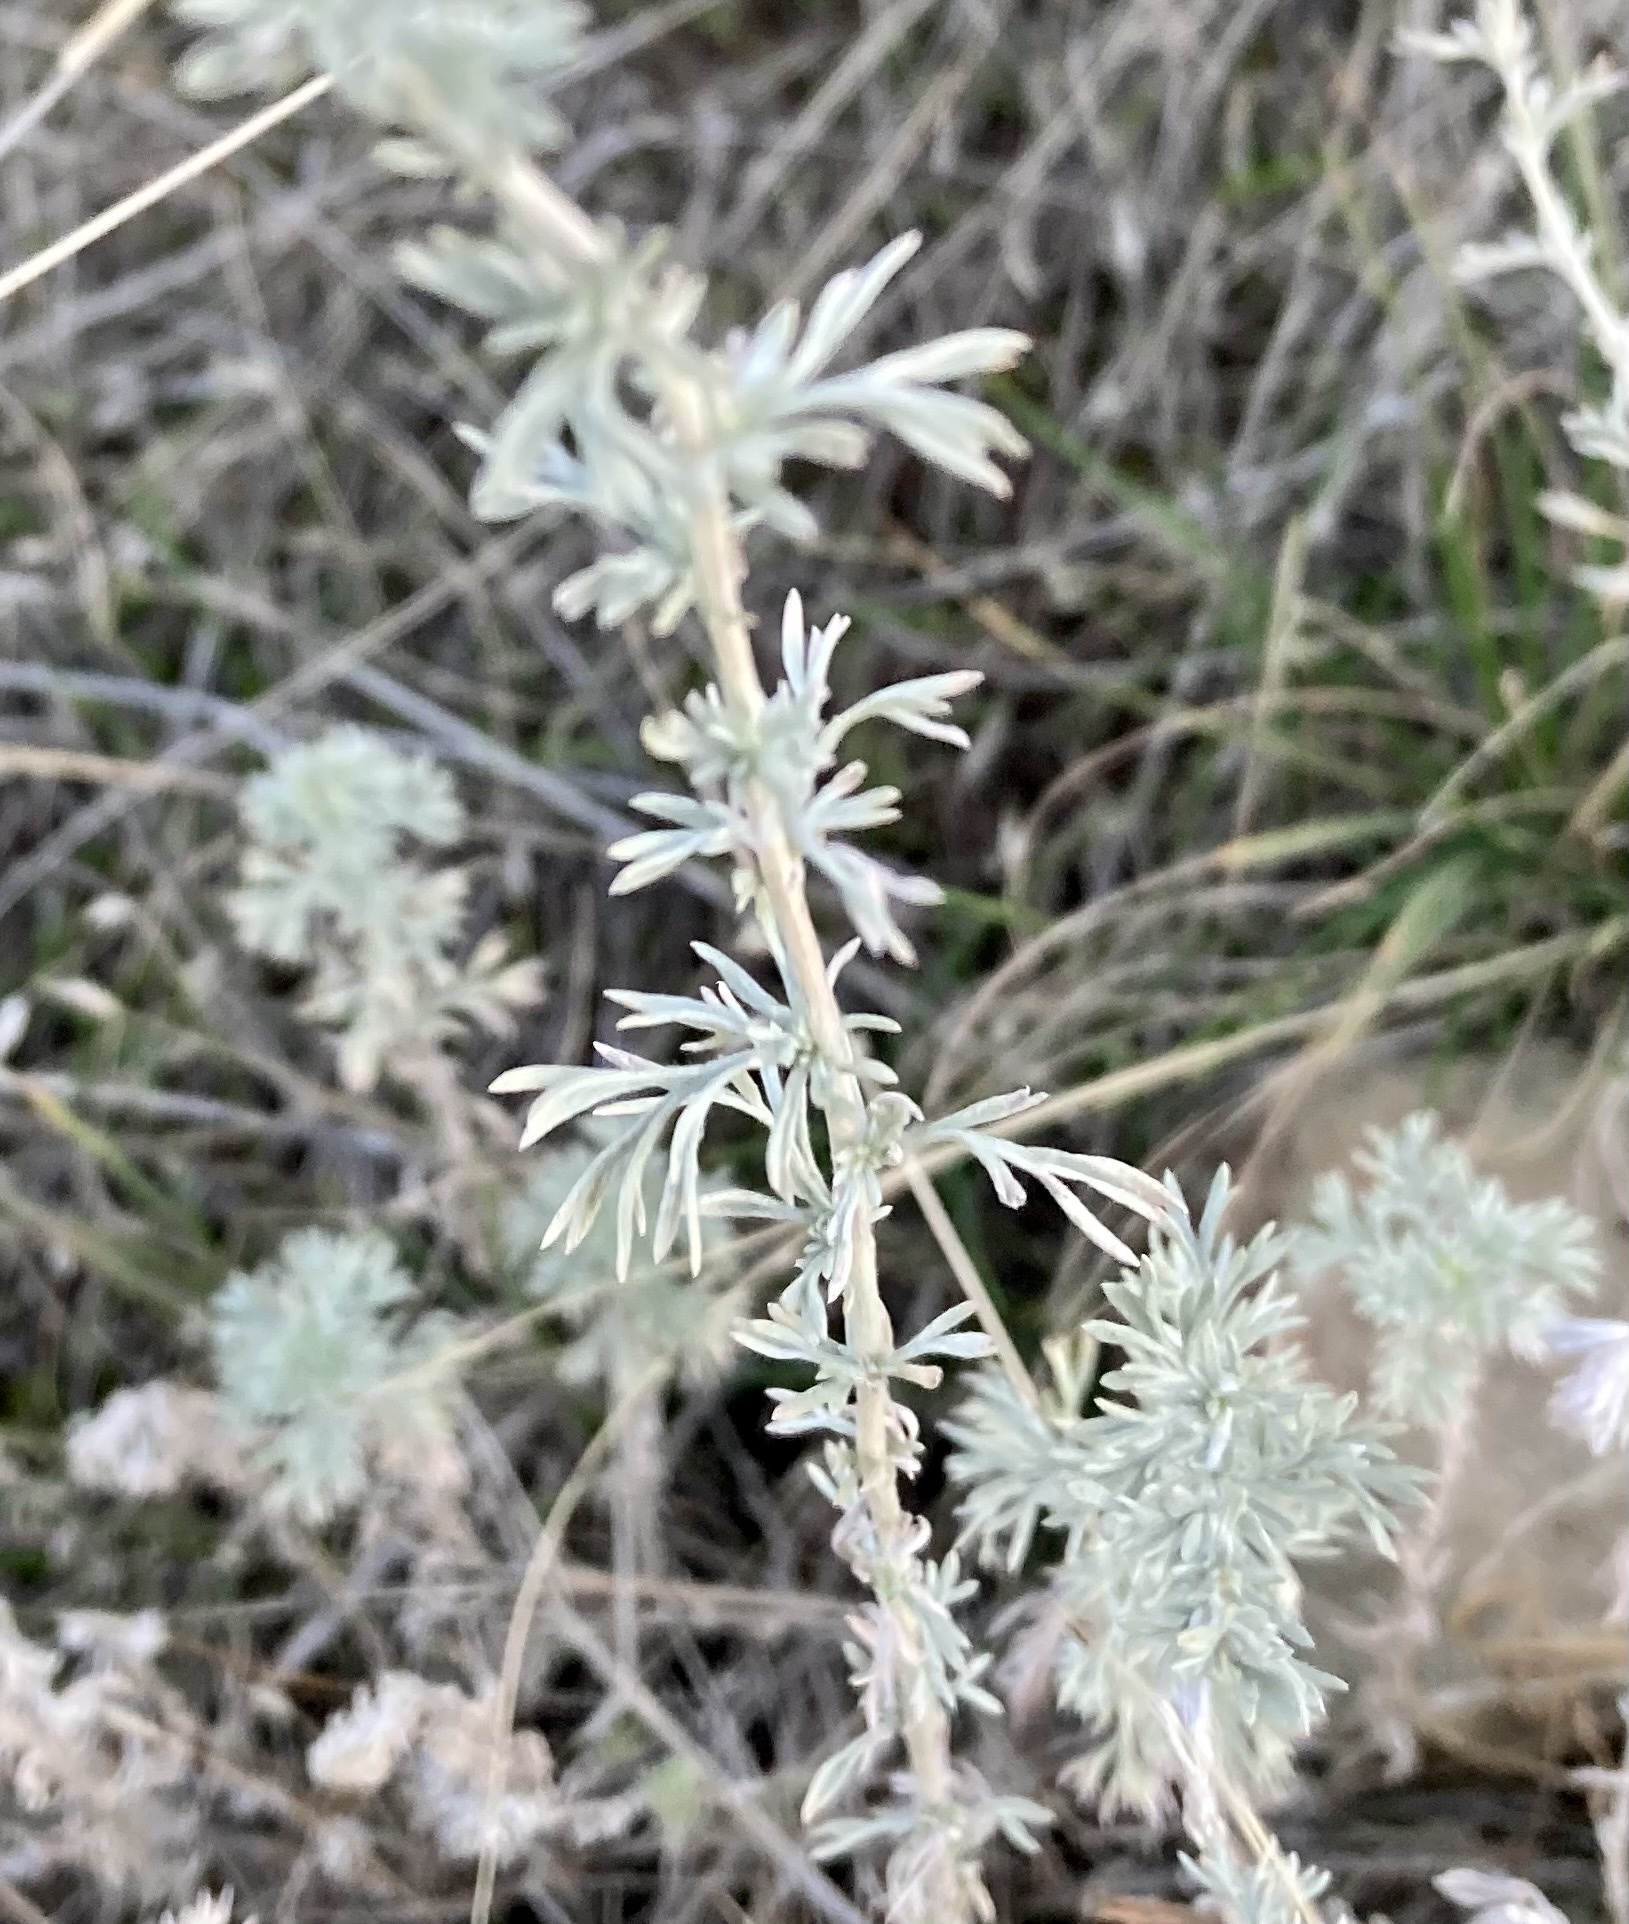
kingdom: Plantae
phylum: Tracheophyta
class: Magnoliopsida
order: Asterales
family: Asteraceae
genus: Artemisia
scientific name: Artemisia frigida
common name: Prairie sagewort
